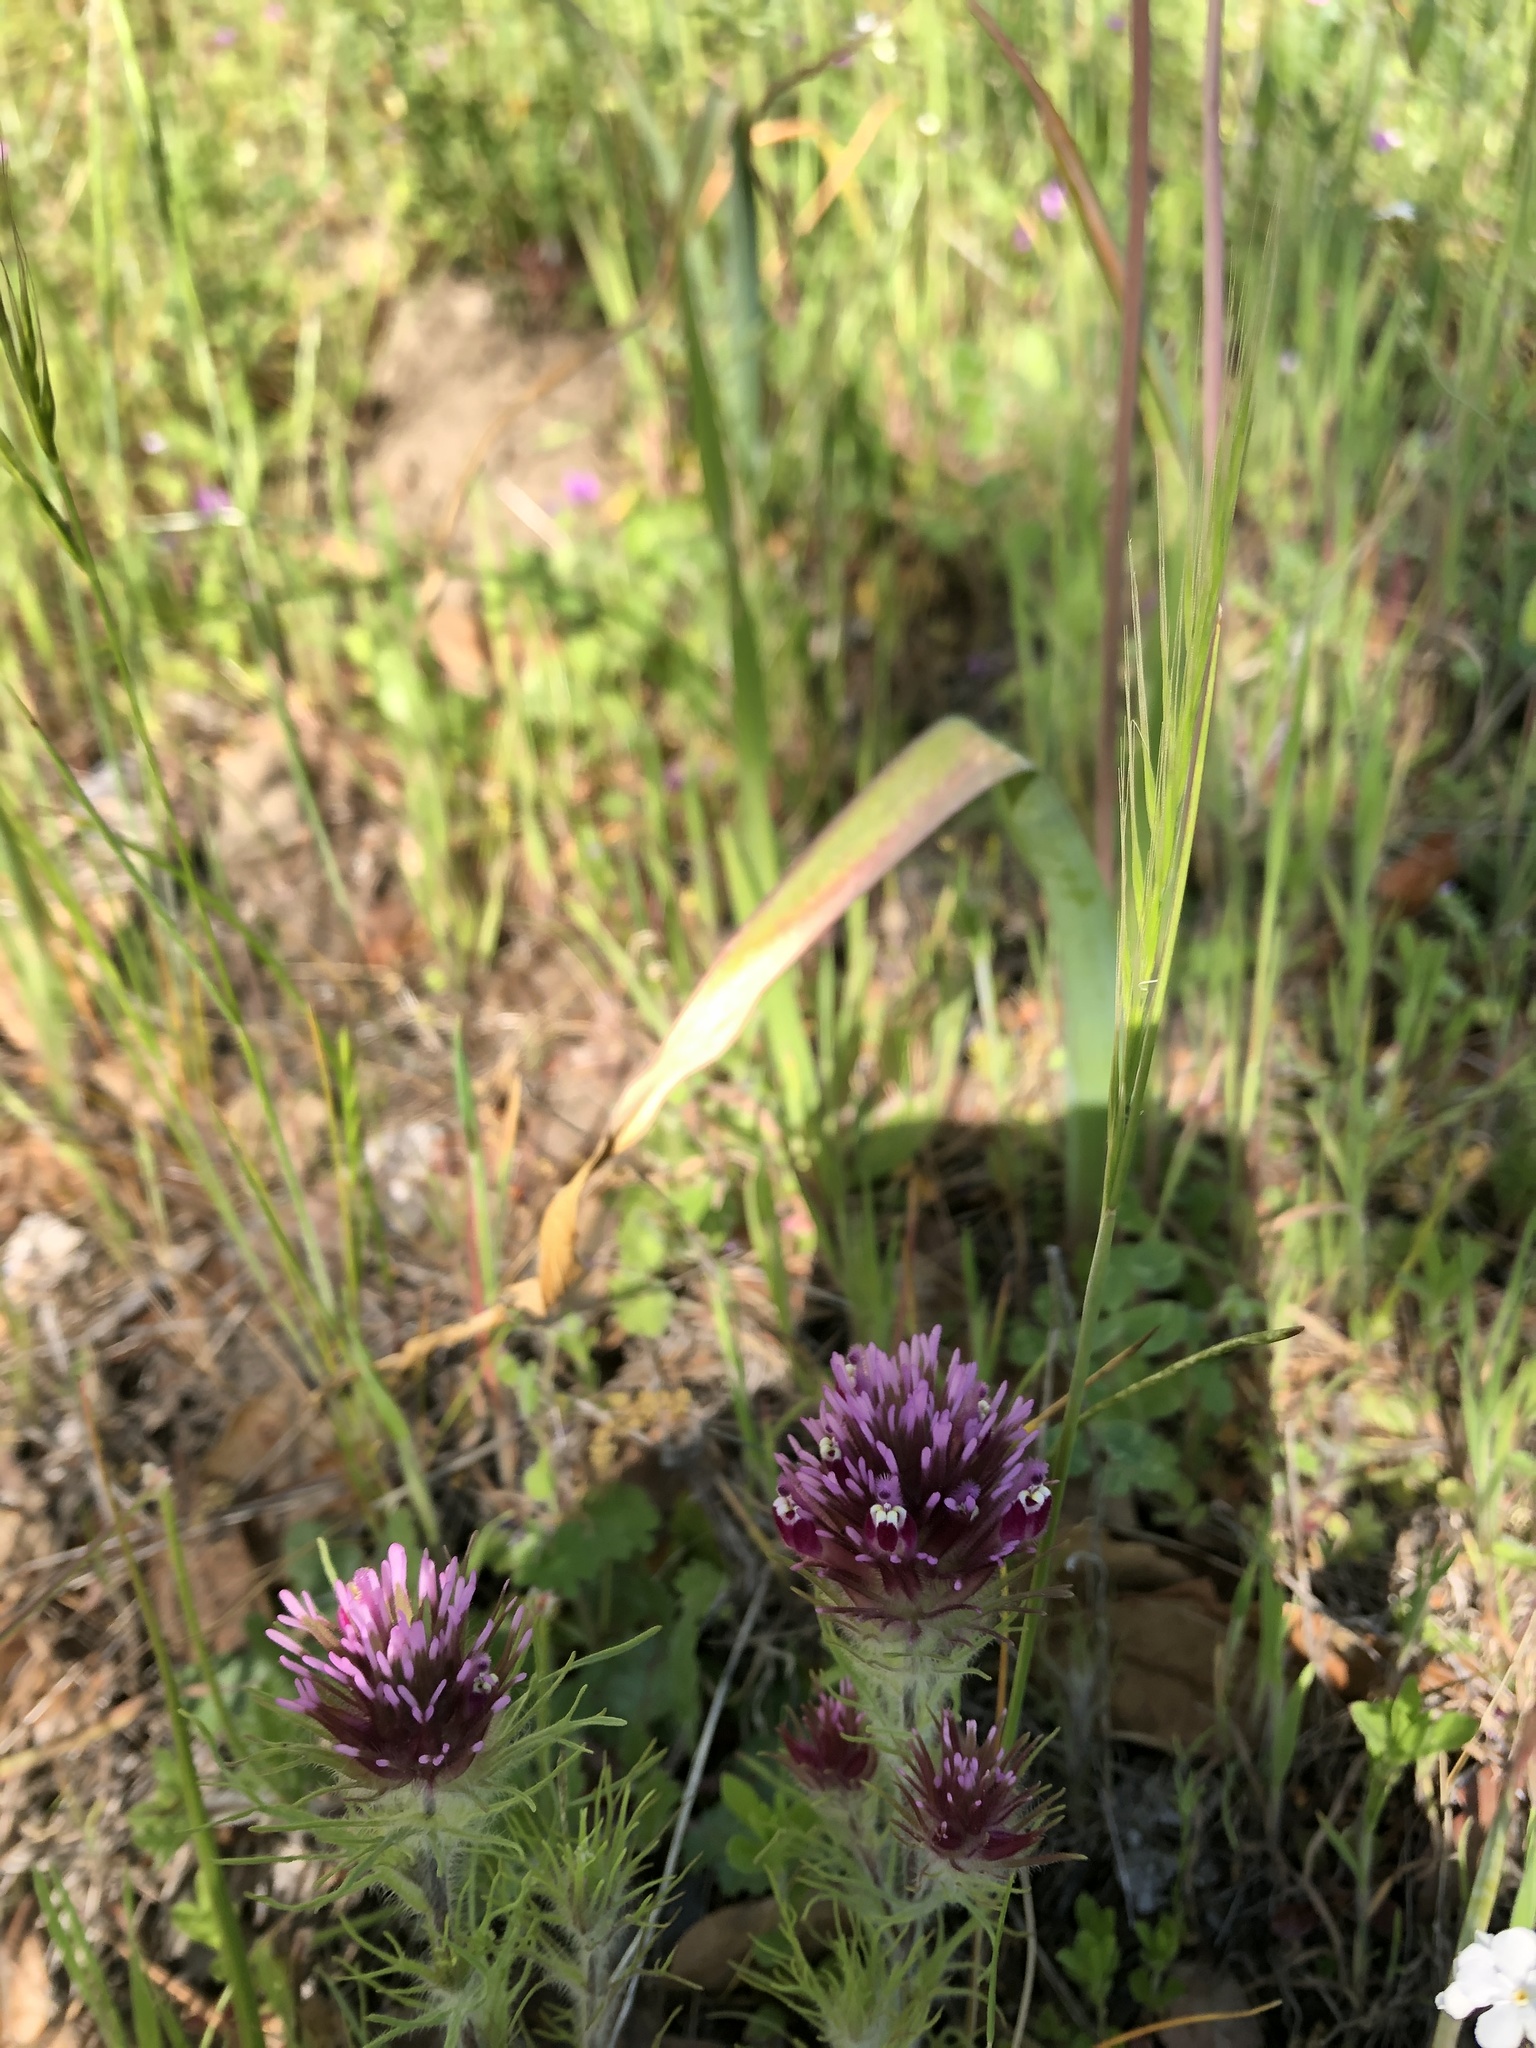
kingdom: Plantae
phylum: Tracheophyta
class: Magnoliopsida
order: Lamiales
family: Orobanchaceae
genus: Castilleja
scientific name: Castilleja exserta
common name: Purple owl-clover
